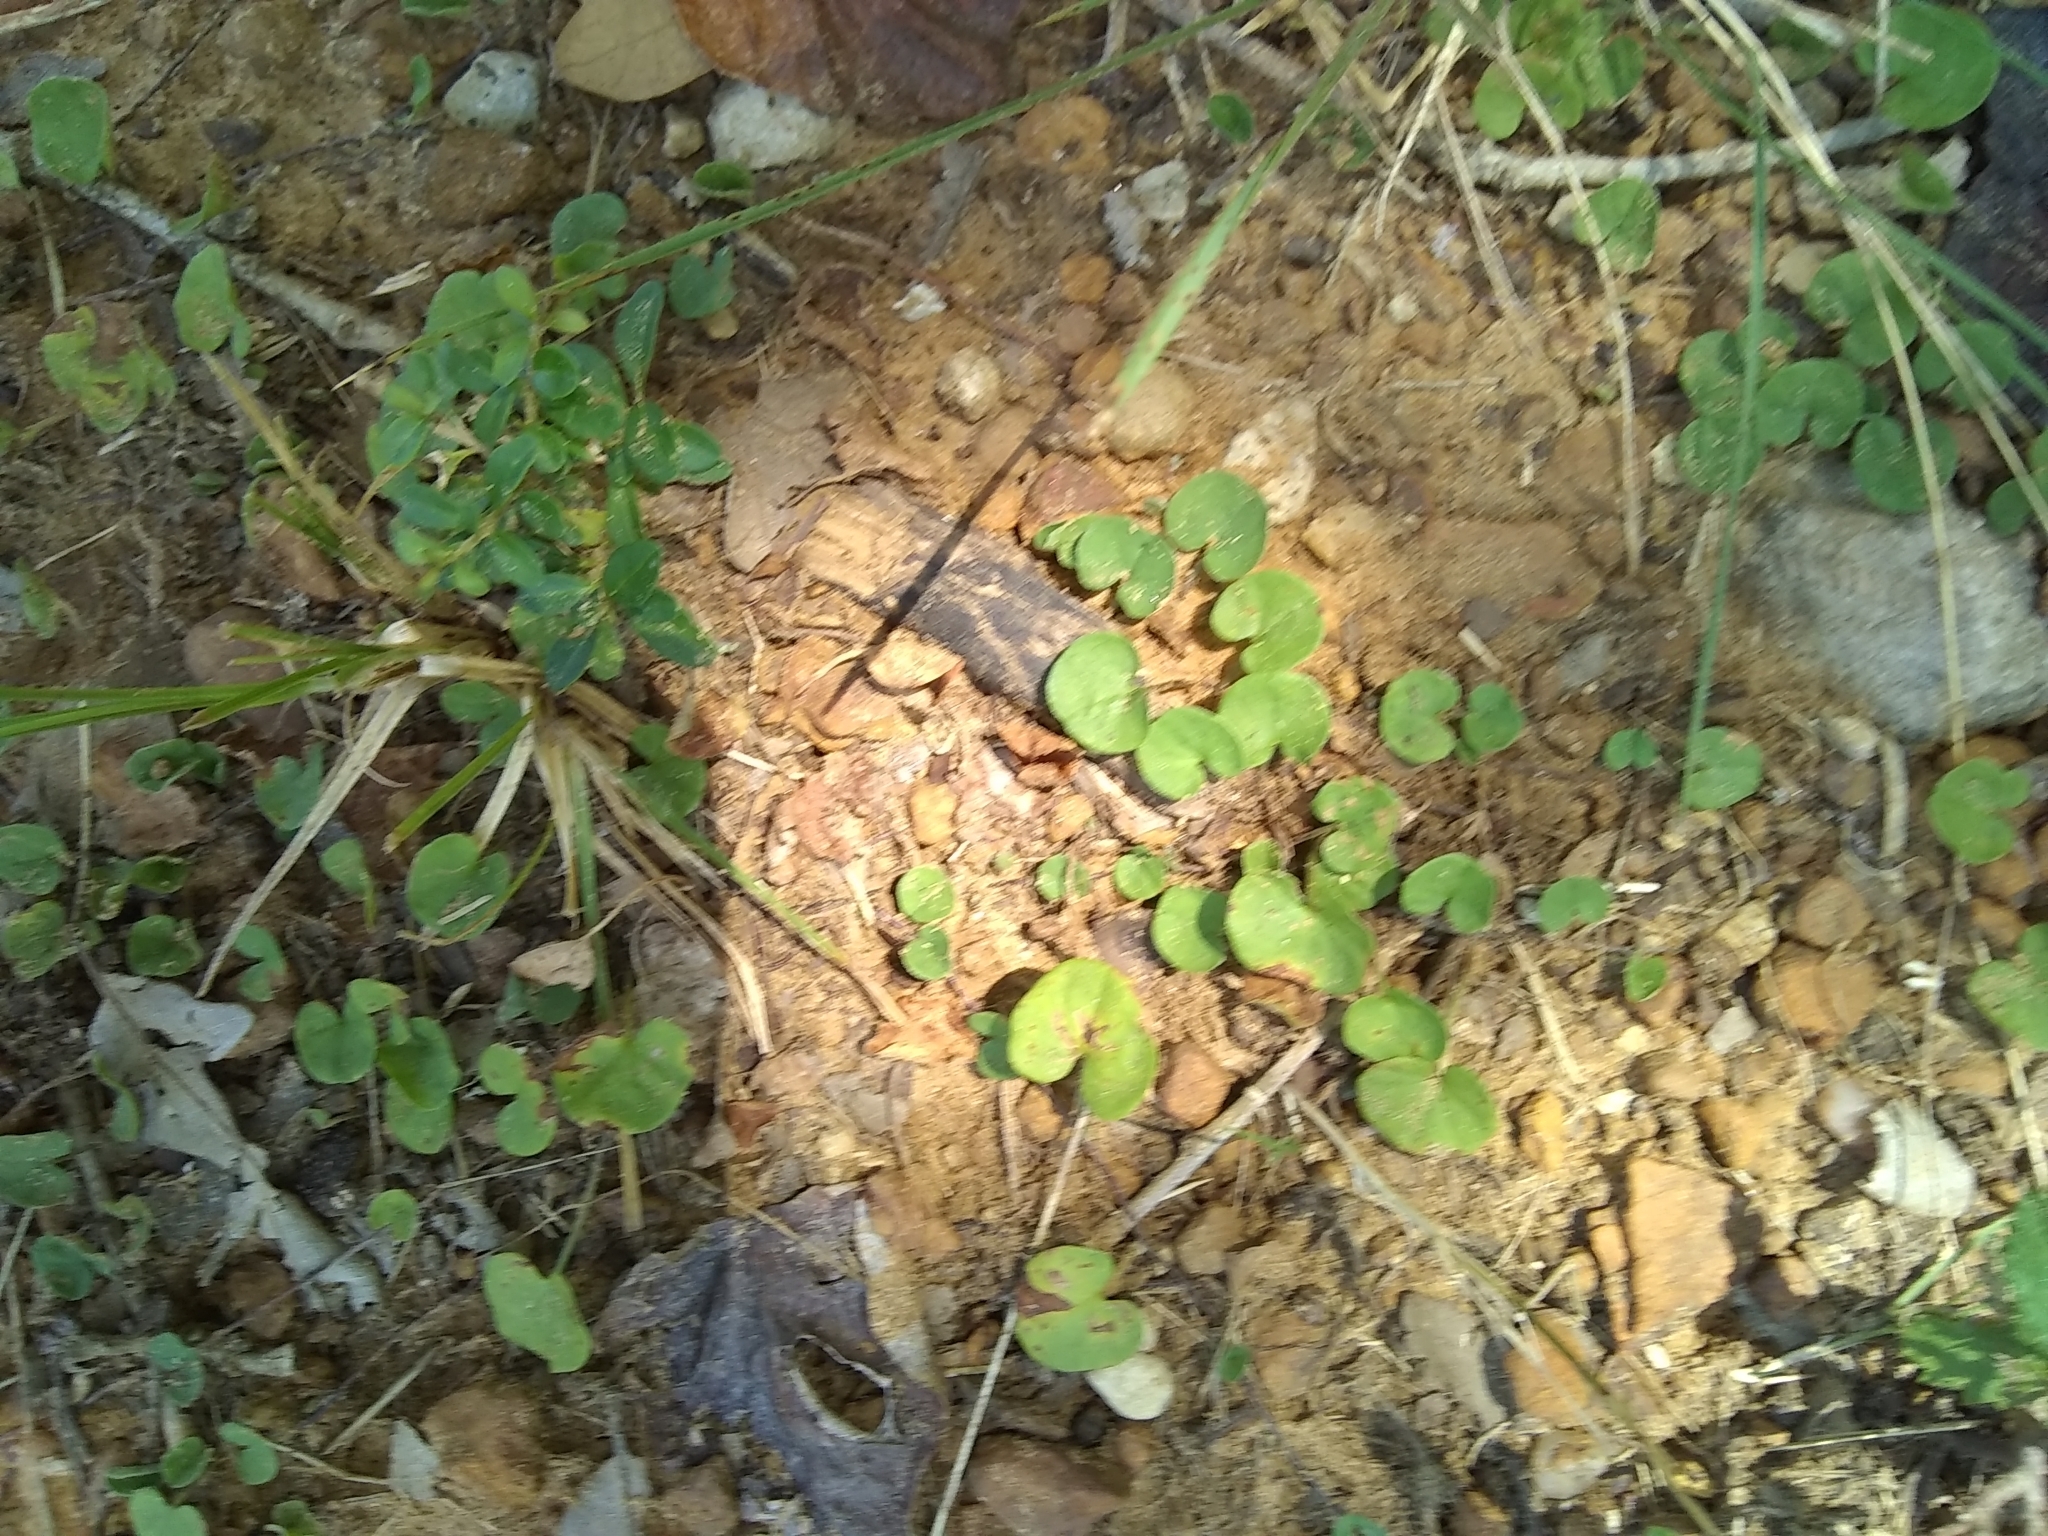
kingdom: Plantae
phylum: Tracheophyta
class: Magnoliopsida
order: Solanales
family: Convolvulaceae
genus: Dichondra
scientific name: Dichondra carolinensis
